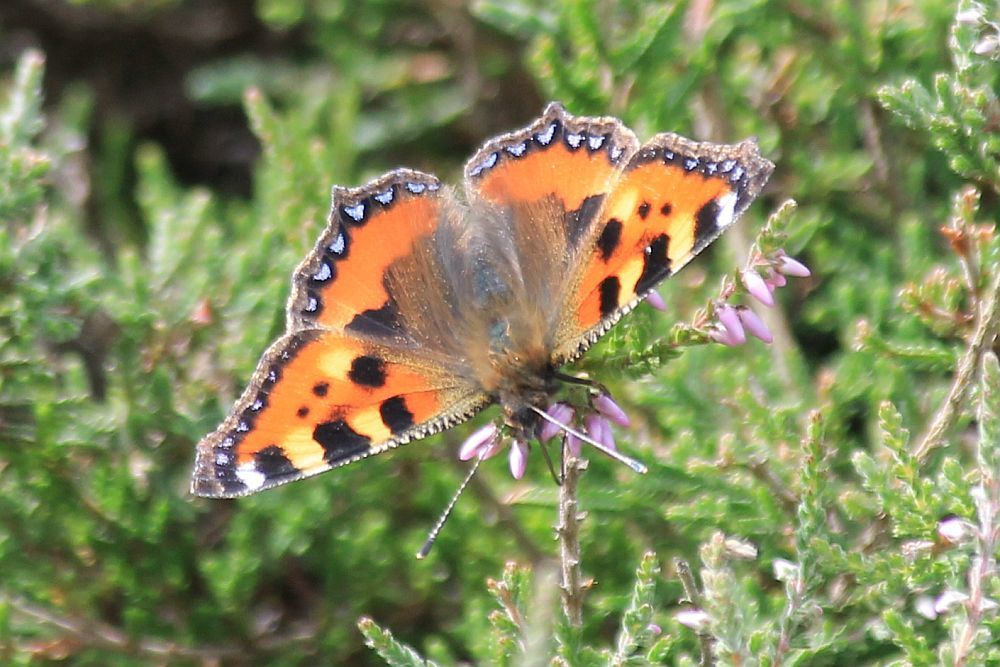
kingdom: Animalia
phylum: Arthropoda
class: Insecta
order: Lepidoptera
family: Nymphalidae
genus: Aglais
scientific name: Aglais urticae
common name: Small tortoiseshell
